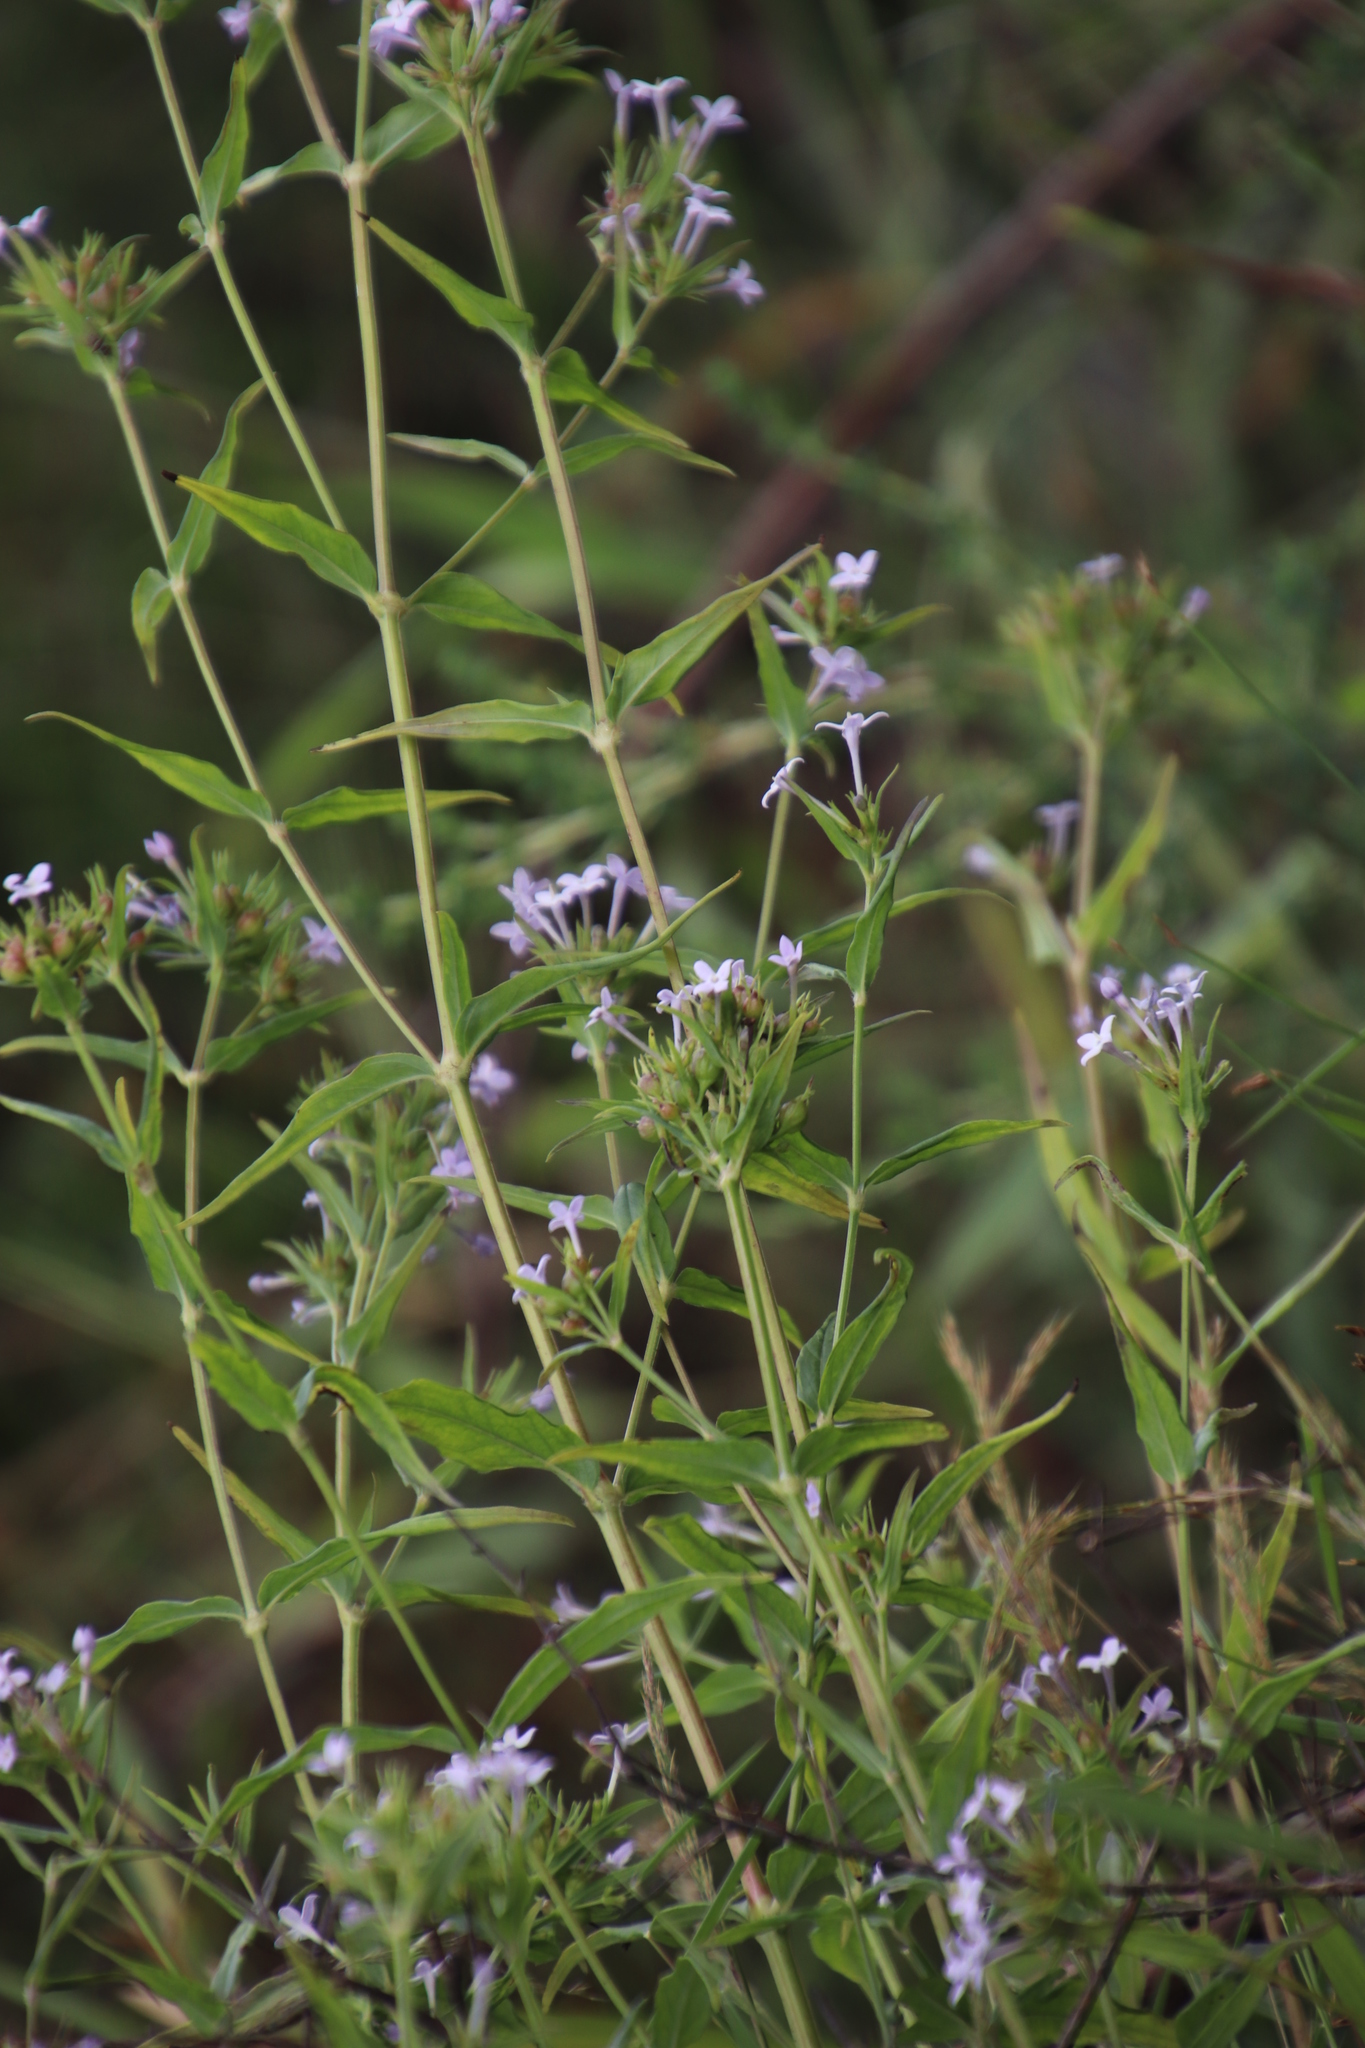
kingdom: Plantae
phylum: Tracheophyta
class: Magnoliopsida
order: Gentianales
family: Rubiaceae
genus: Conostomium
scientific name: Conostomium natalense
